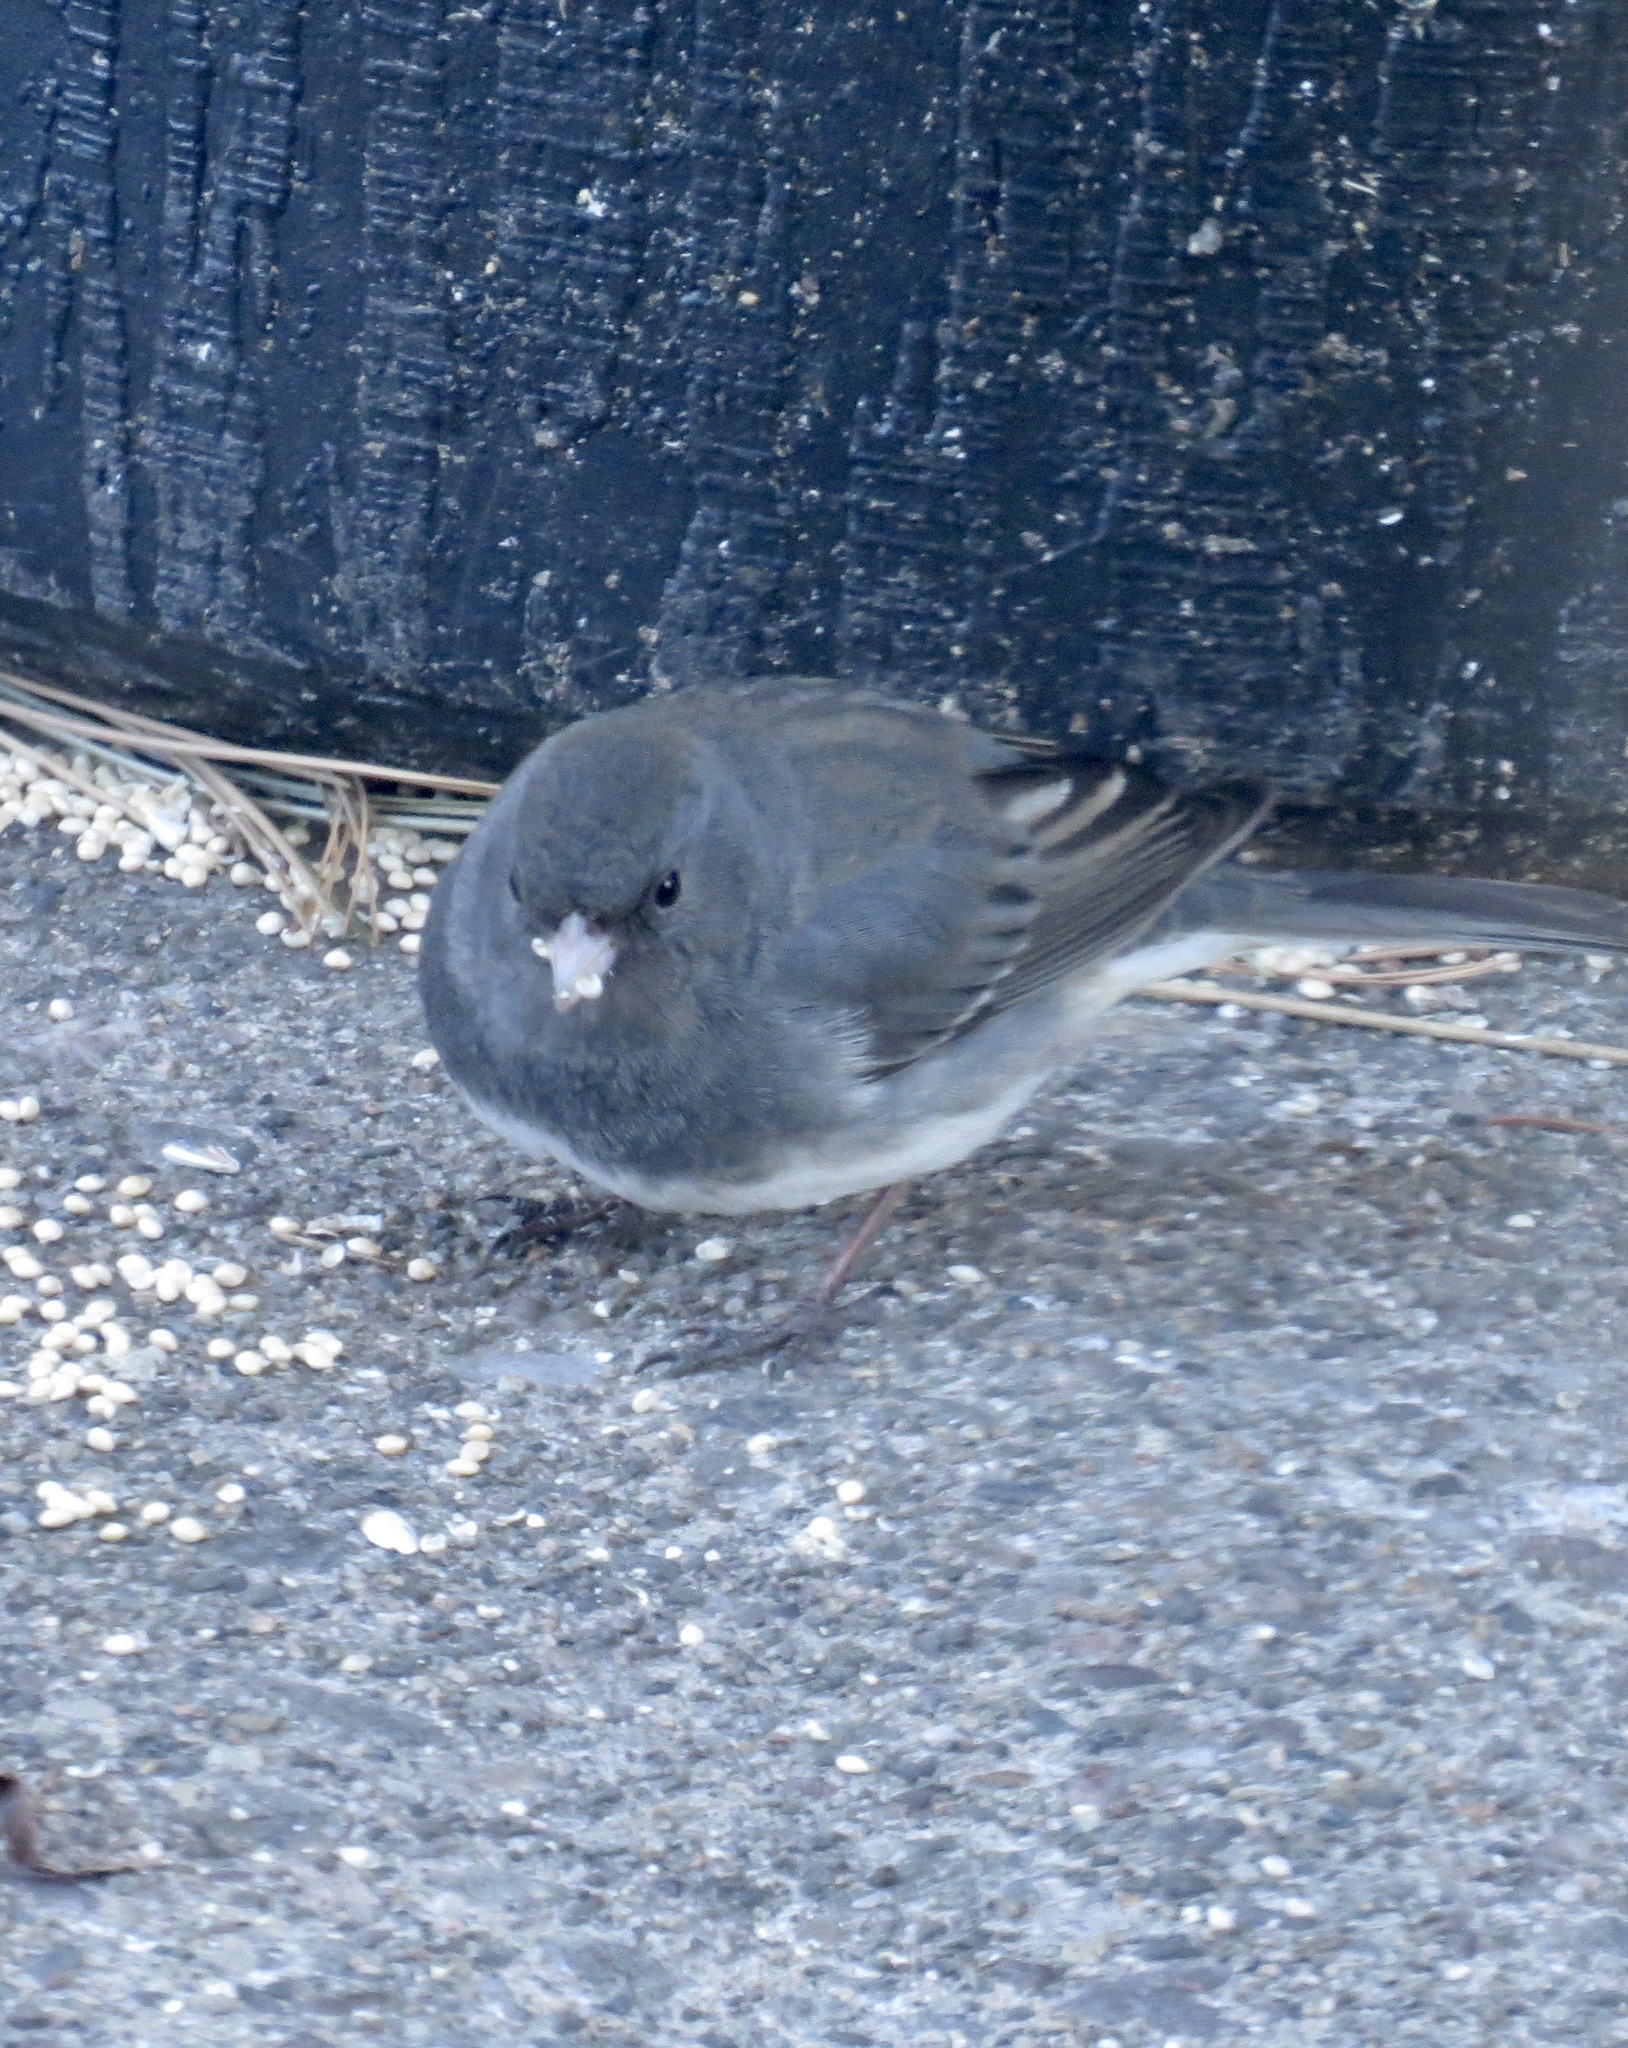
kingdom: Animalia
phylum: Chordata
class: Aves
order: Passeriformes
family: Passerellidae
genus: Junco
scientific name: Junco hyemalis
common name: Dark-eyed junco
